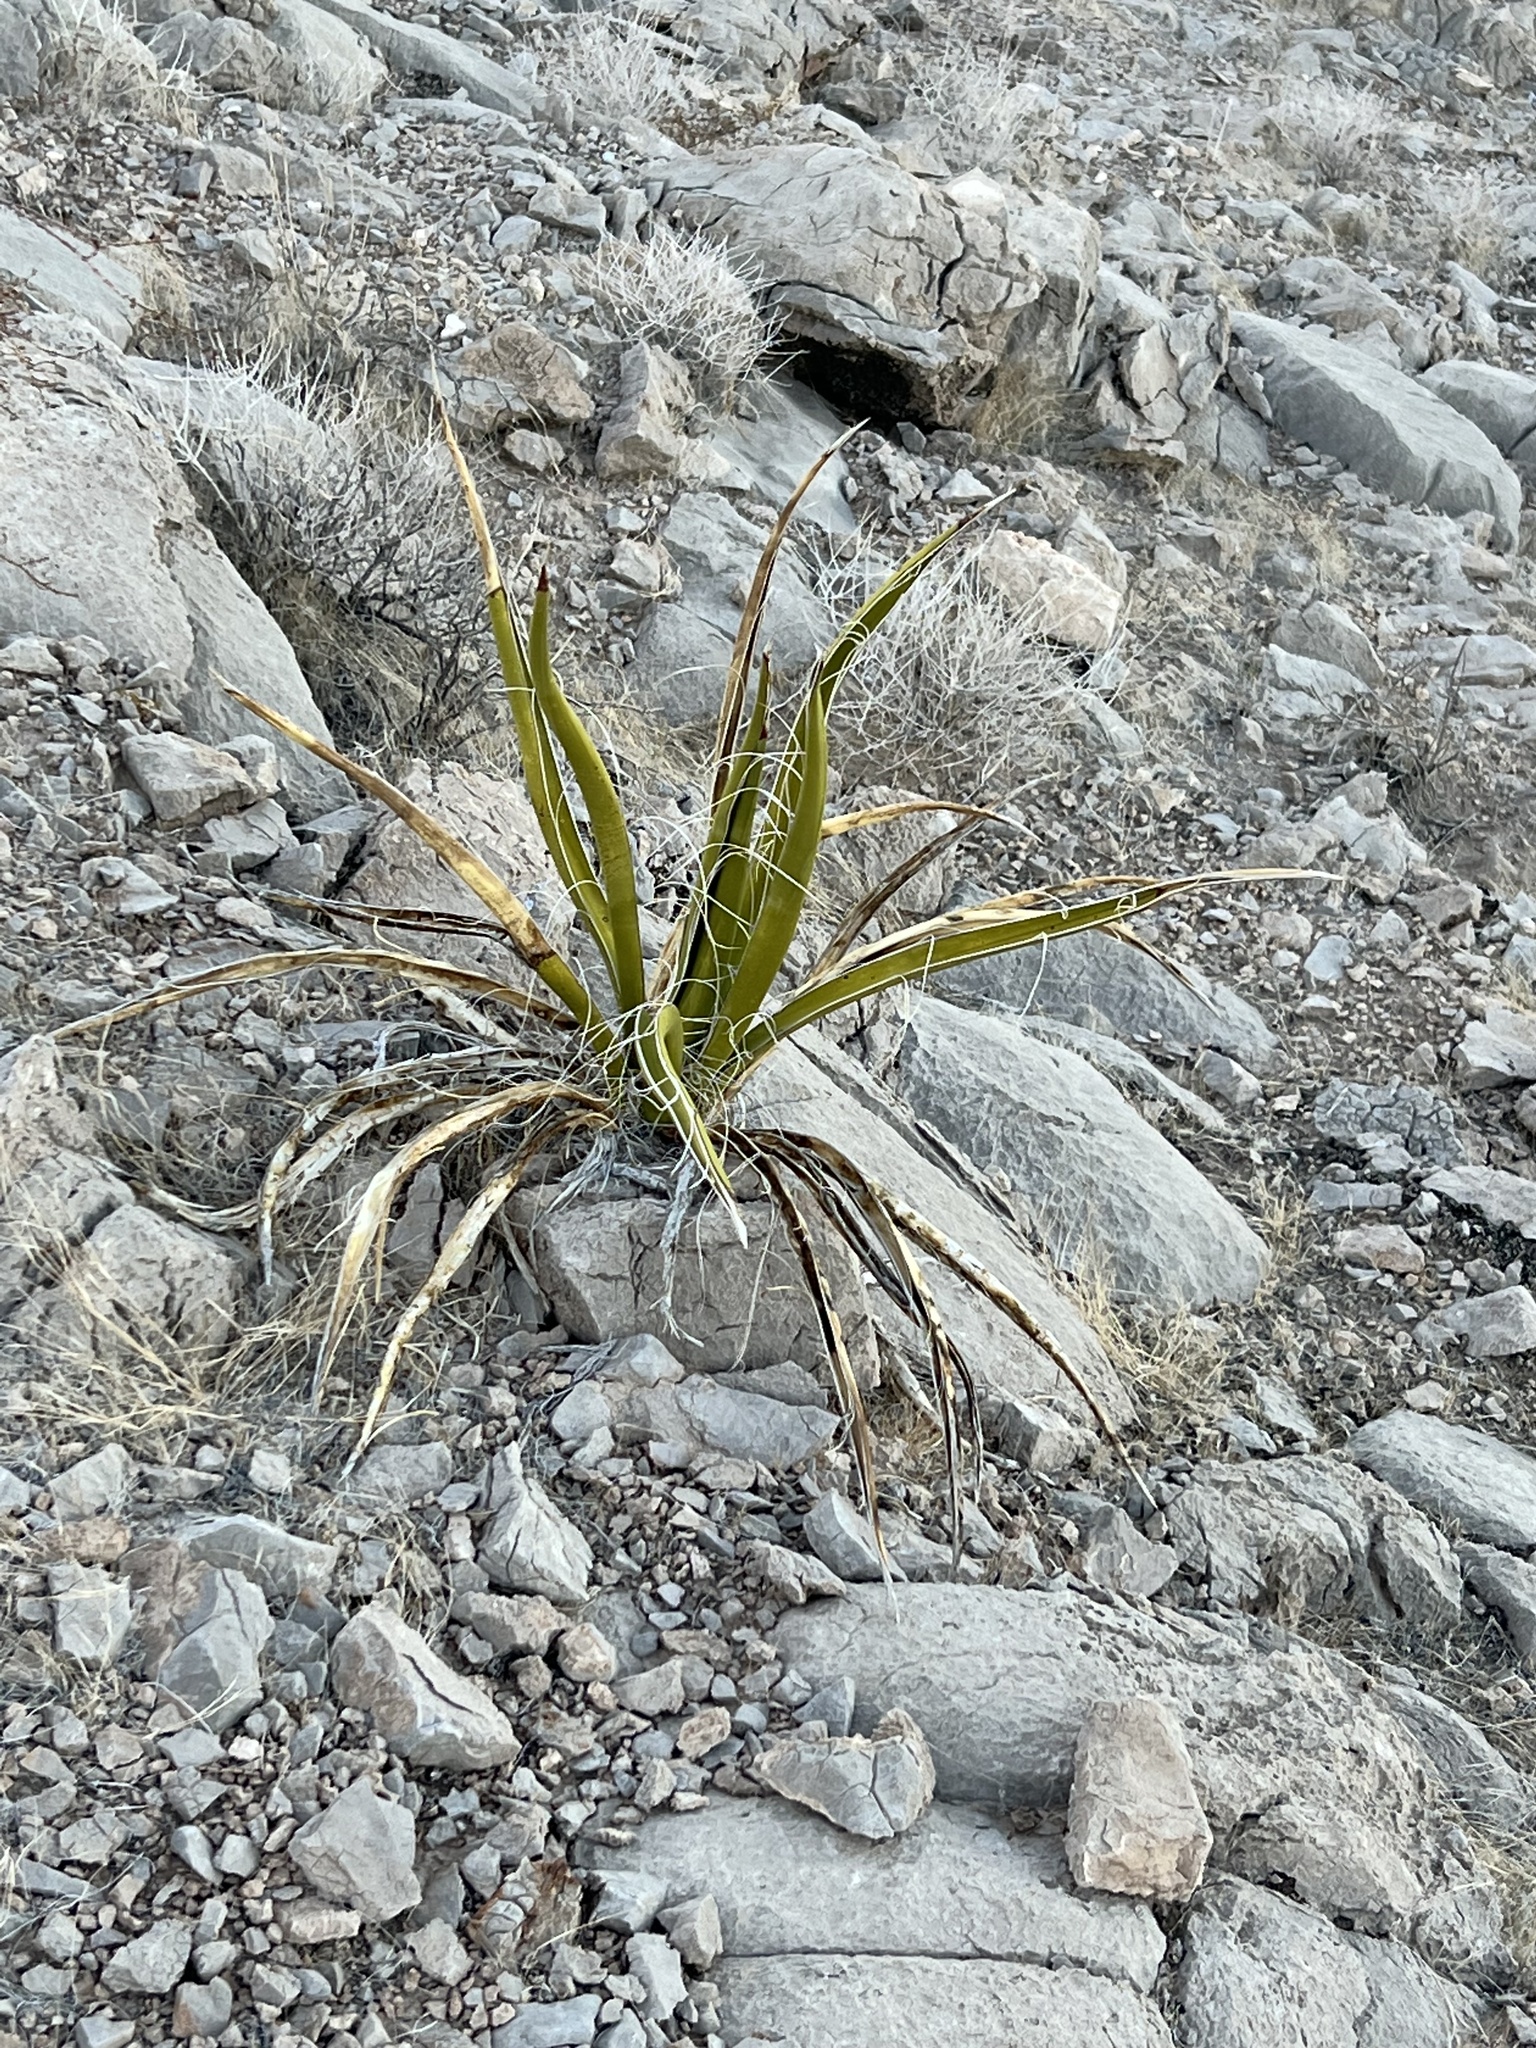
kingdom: Plantae
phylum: Tracheophyta
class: Liliopsida
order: Asparagales
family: Asparagaceae
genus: Yucca
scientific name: Yucca baccata
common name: Banana yucca
